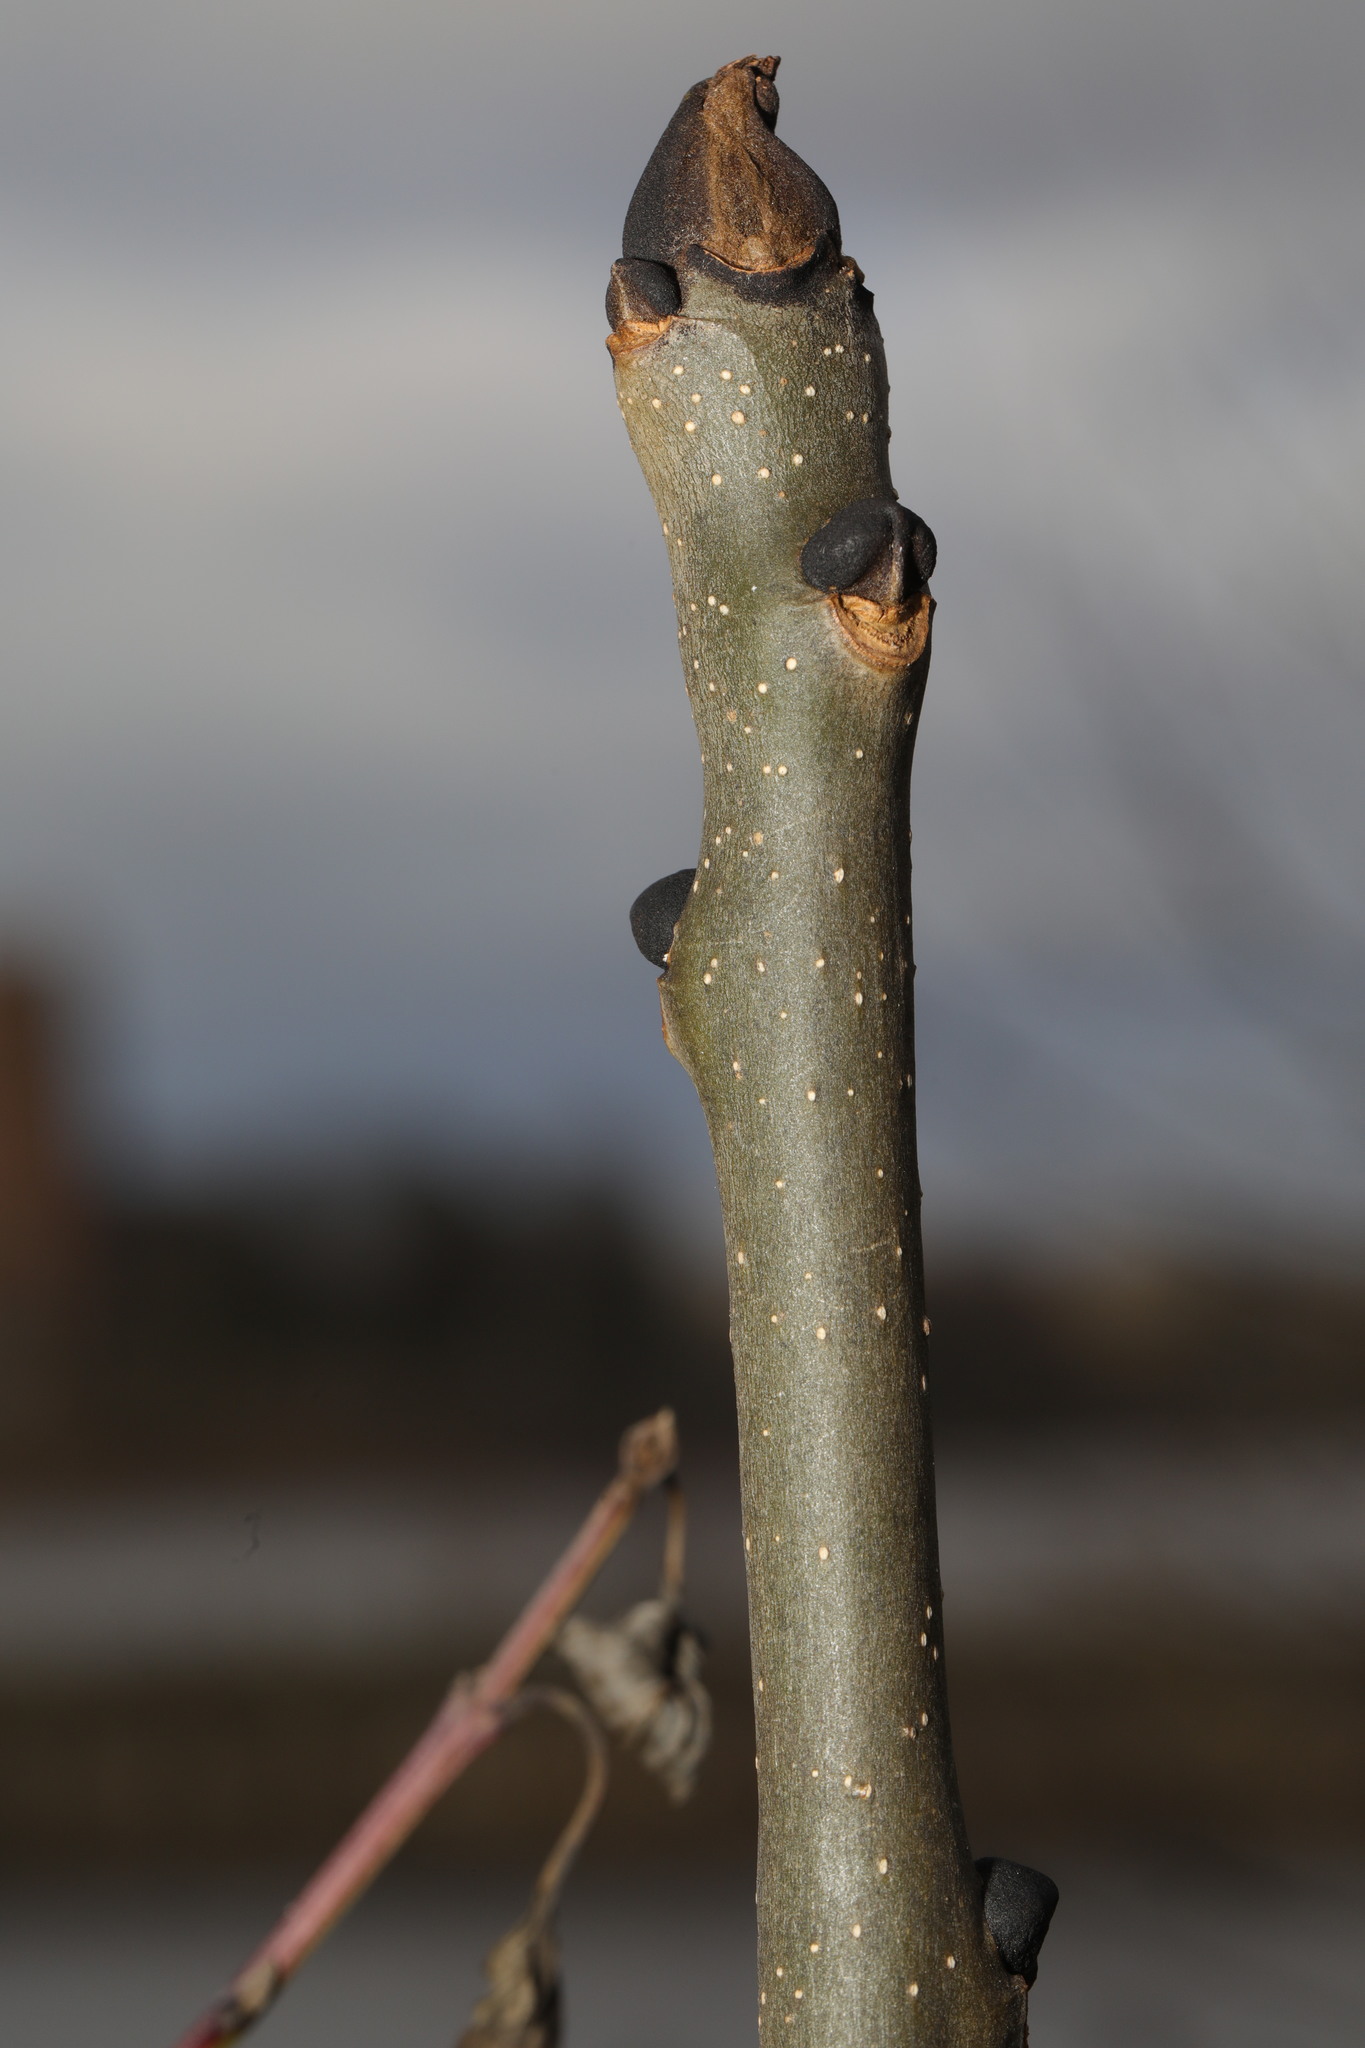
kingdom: Plantae
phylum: Tracheophyta
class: Magnoliopsida
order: Lamiales
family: Oleaceae
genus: Fraxinus
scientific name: Fraxinus excelsior
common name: European ash
